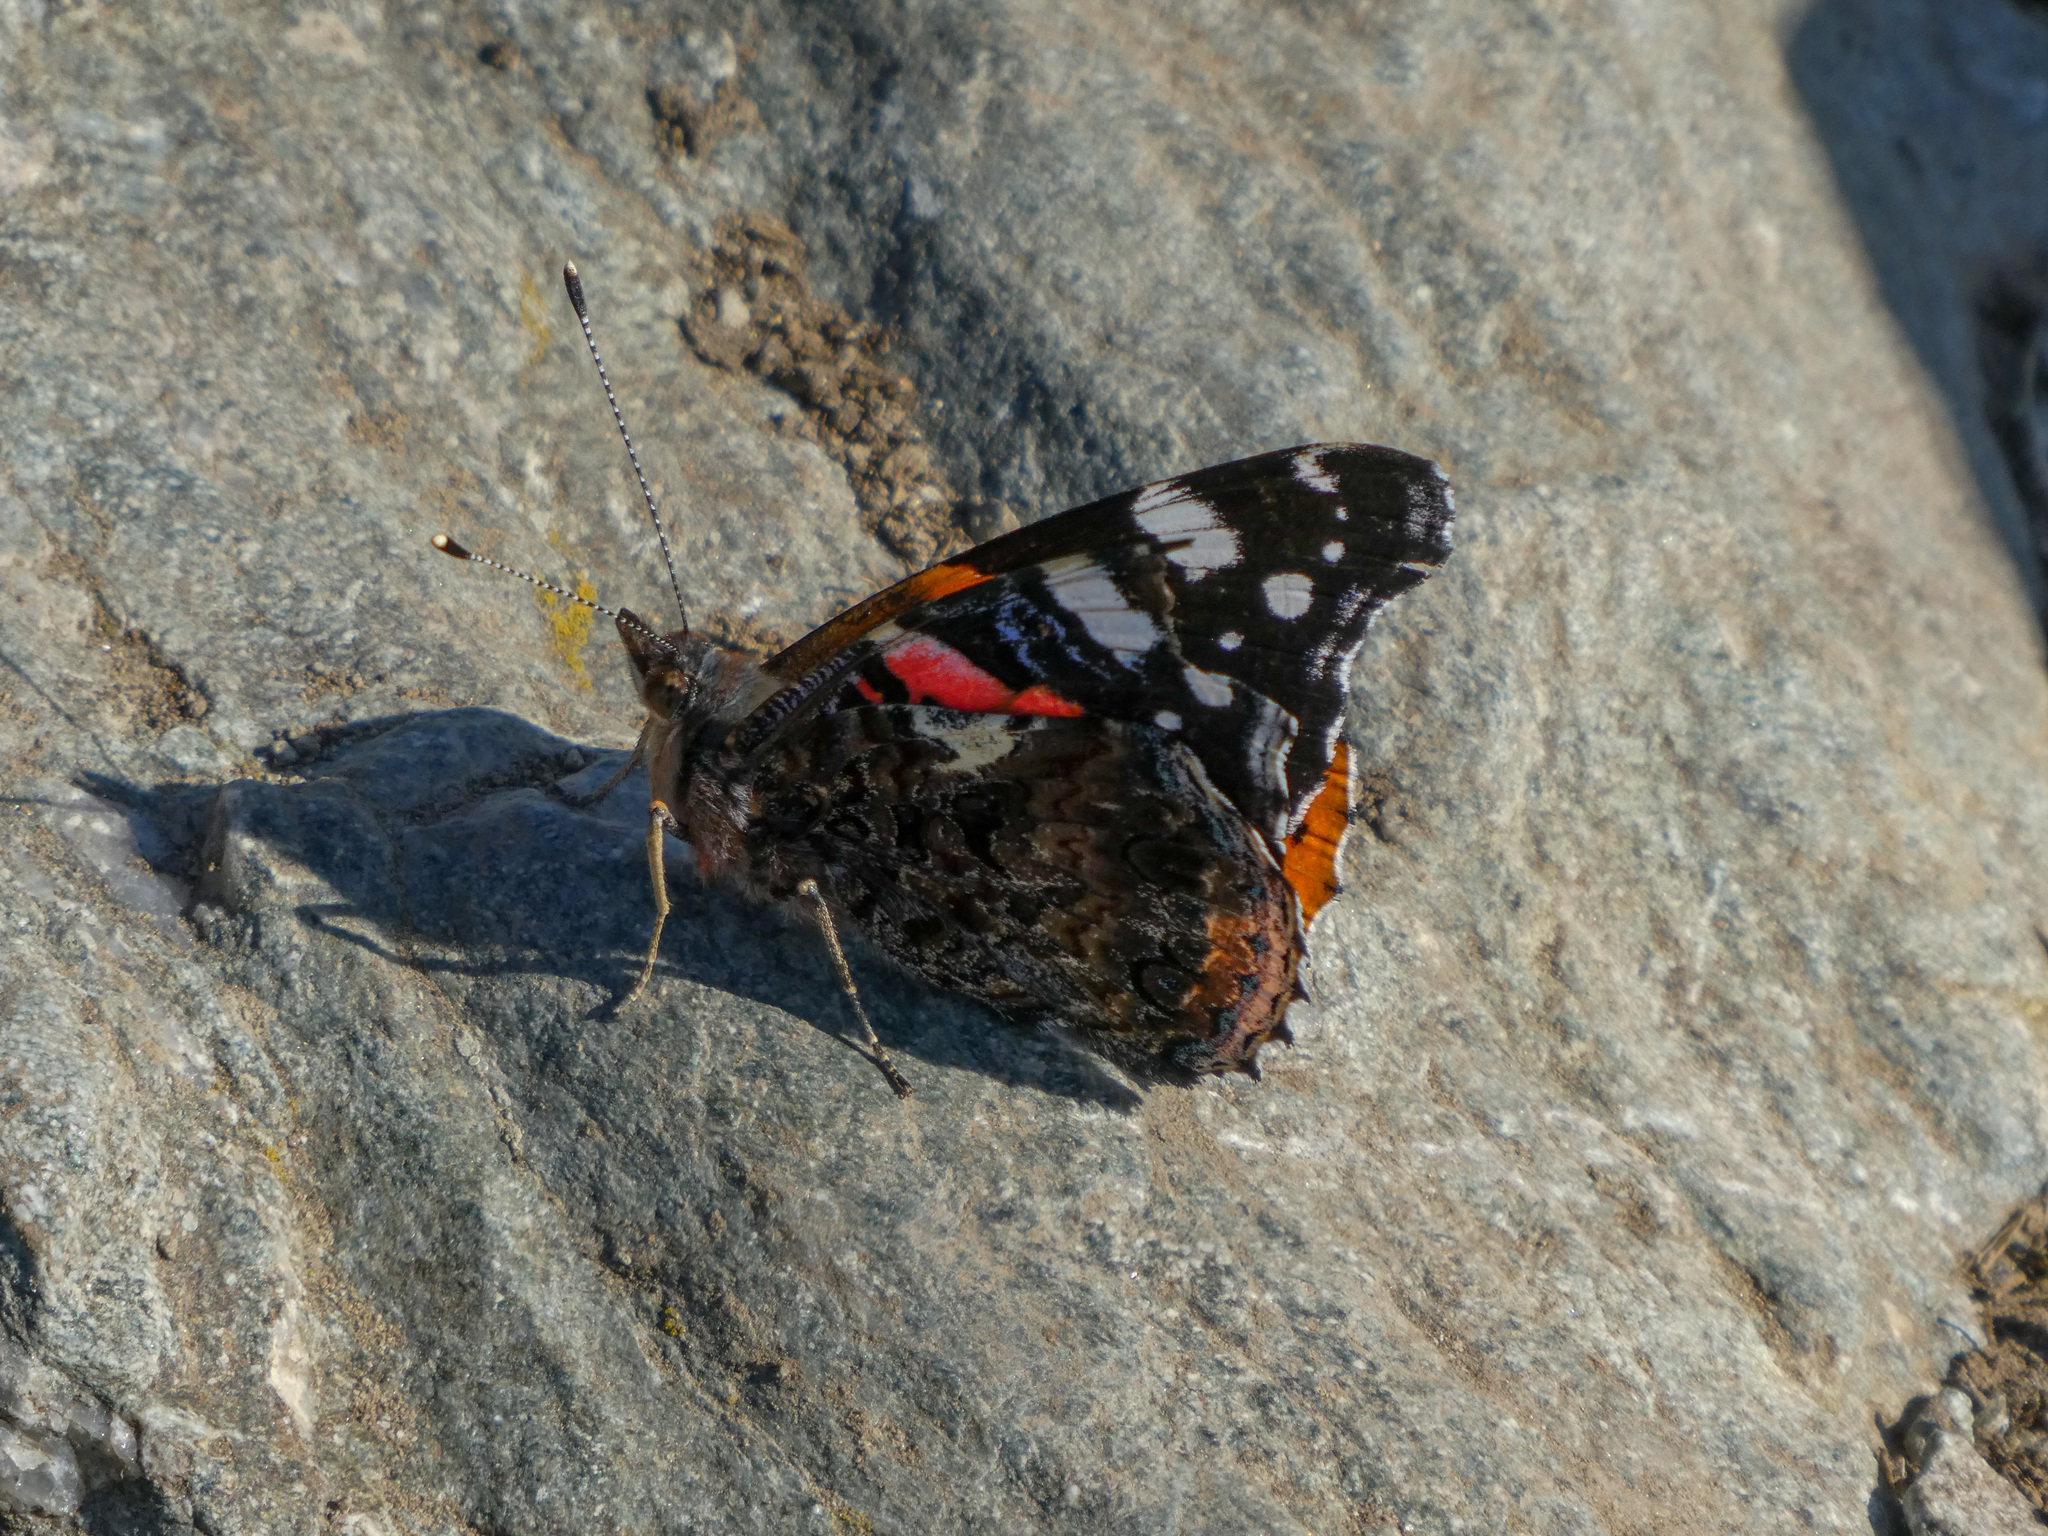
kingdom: Animalia
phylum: Arthropoda
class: Insecta
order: Lepidoptera
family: Nymphalidae
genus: Vanessa
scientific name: Vanessa atalanta
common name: Red admiral
